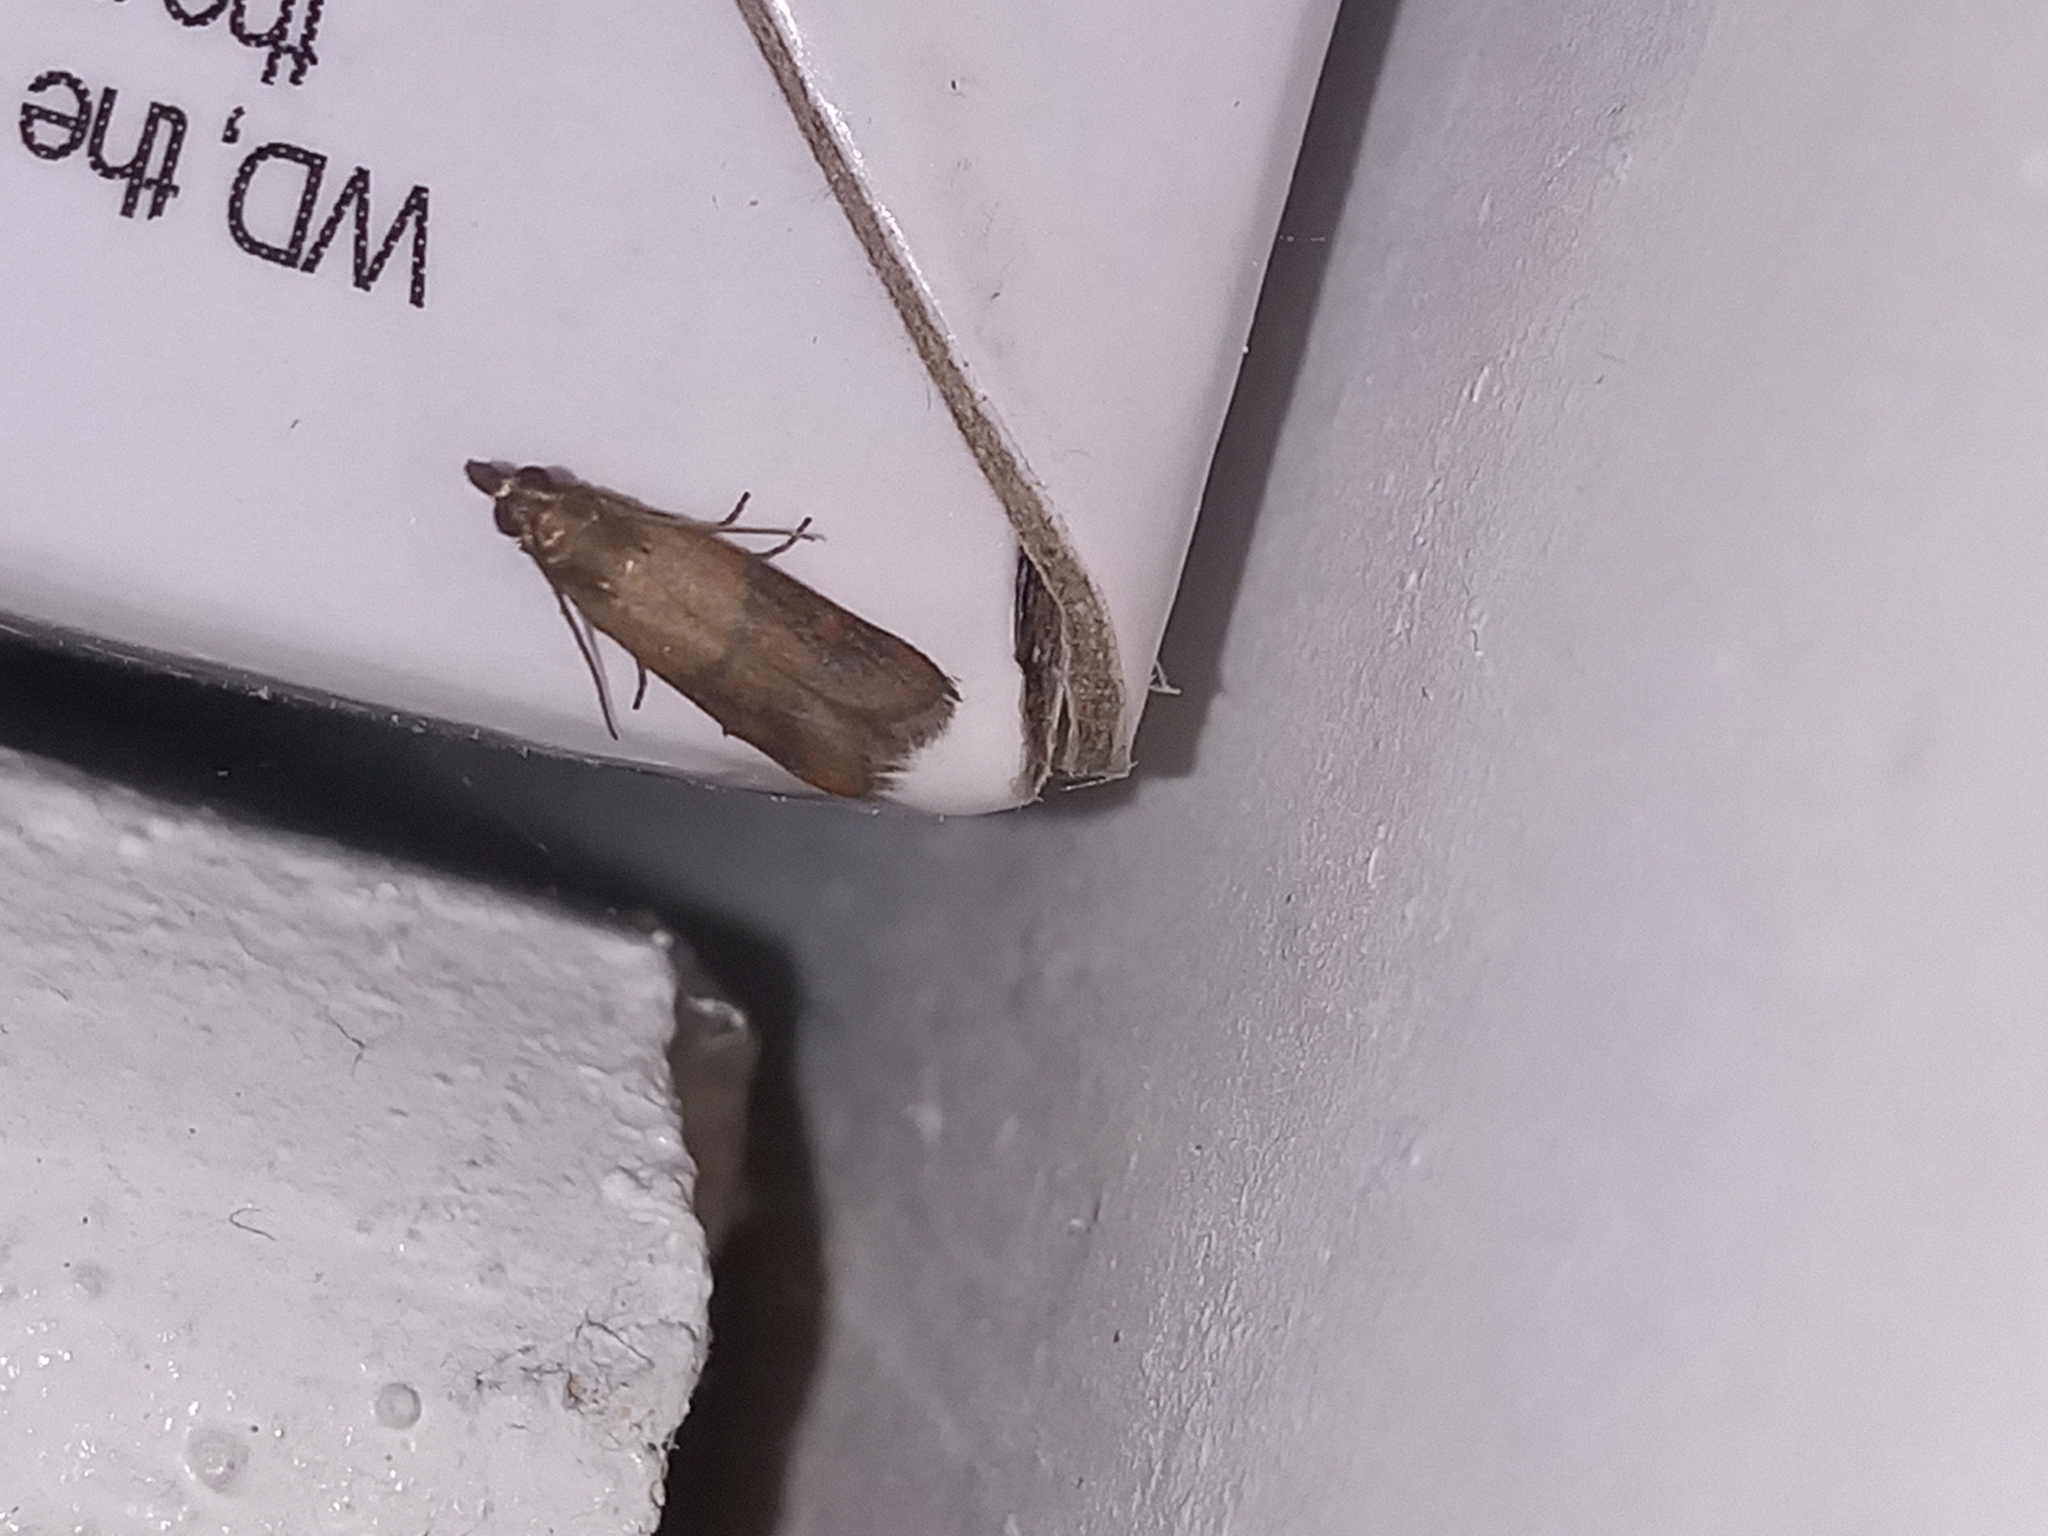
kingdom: Animalia
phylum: Arthropoda
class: Insecta
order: Lepidoptera
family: Pyralidae
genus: Plodia
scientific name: Plodia interpunctella
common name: Indian meal moth
